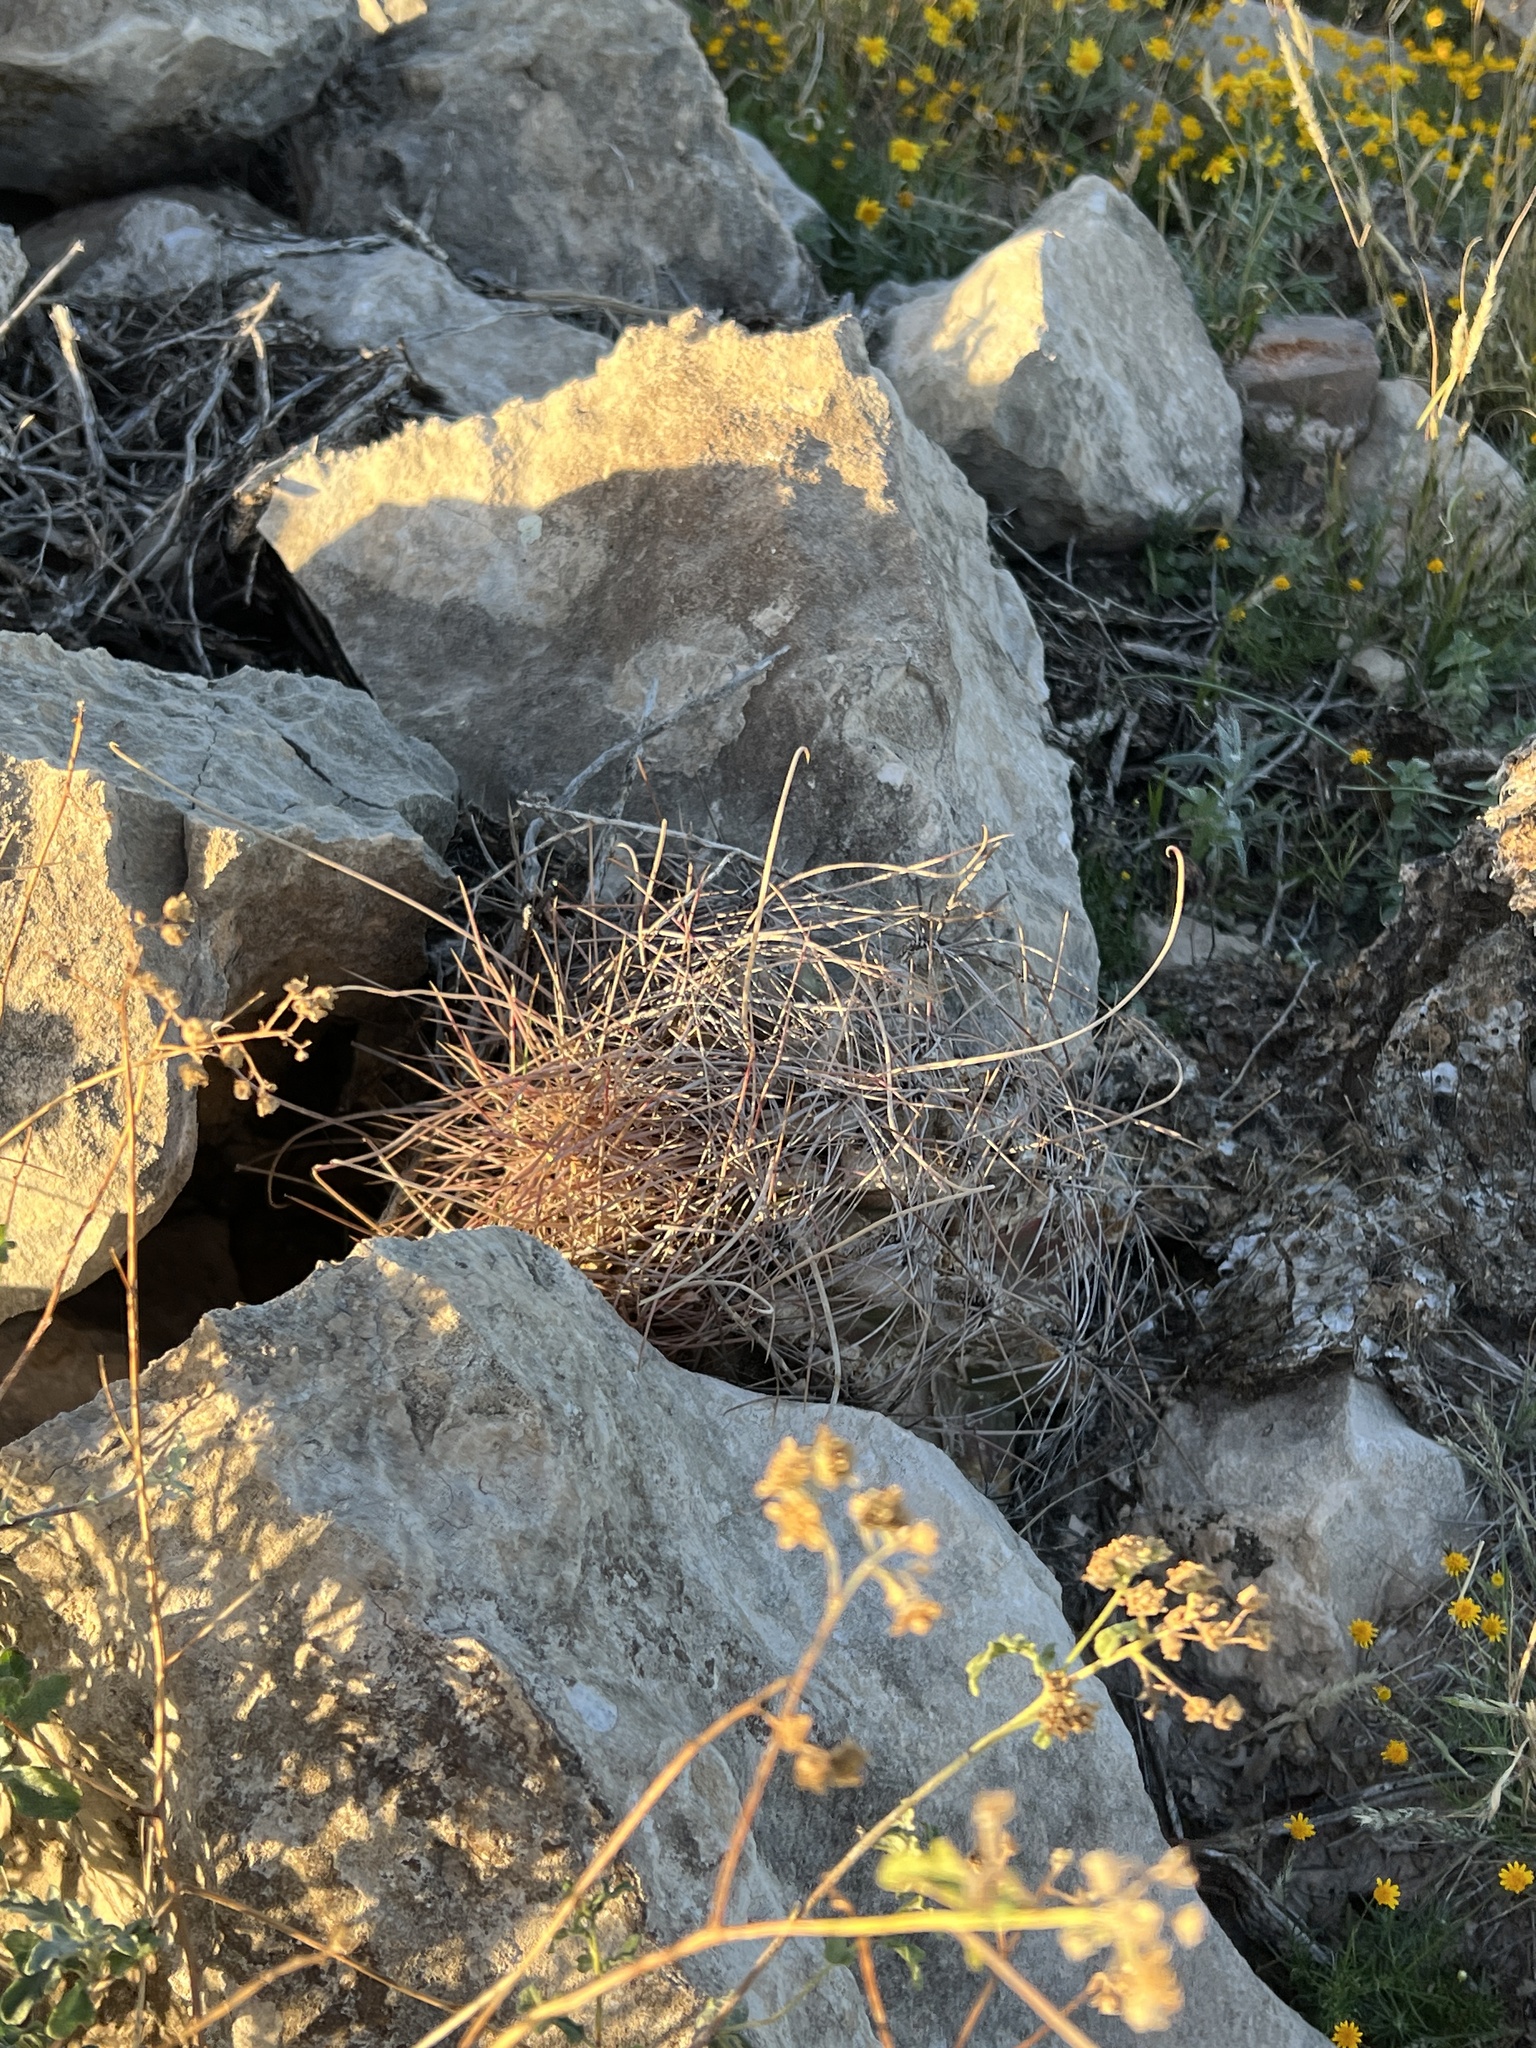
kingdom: Plantae
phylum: Tracheophyta
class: Magnoliopsida
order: Caryophyllales
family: Cactaceae
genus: Bisnaga
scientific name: Bisnaga hamatacantha
